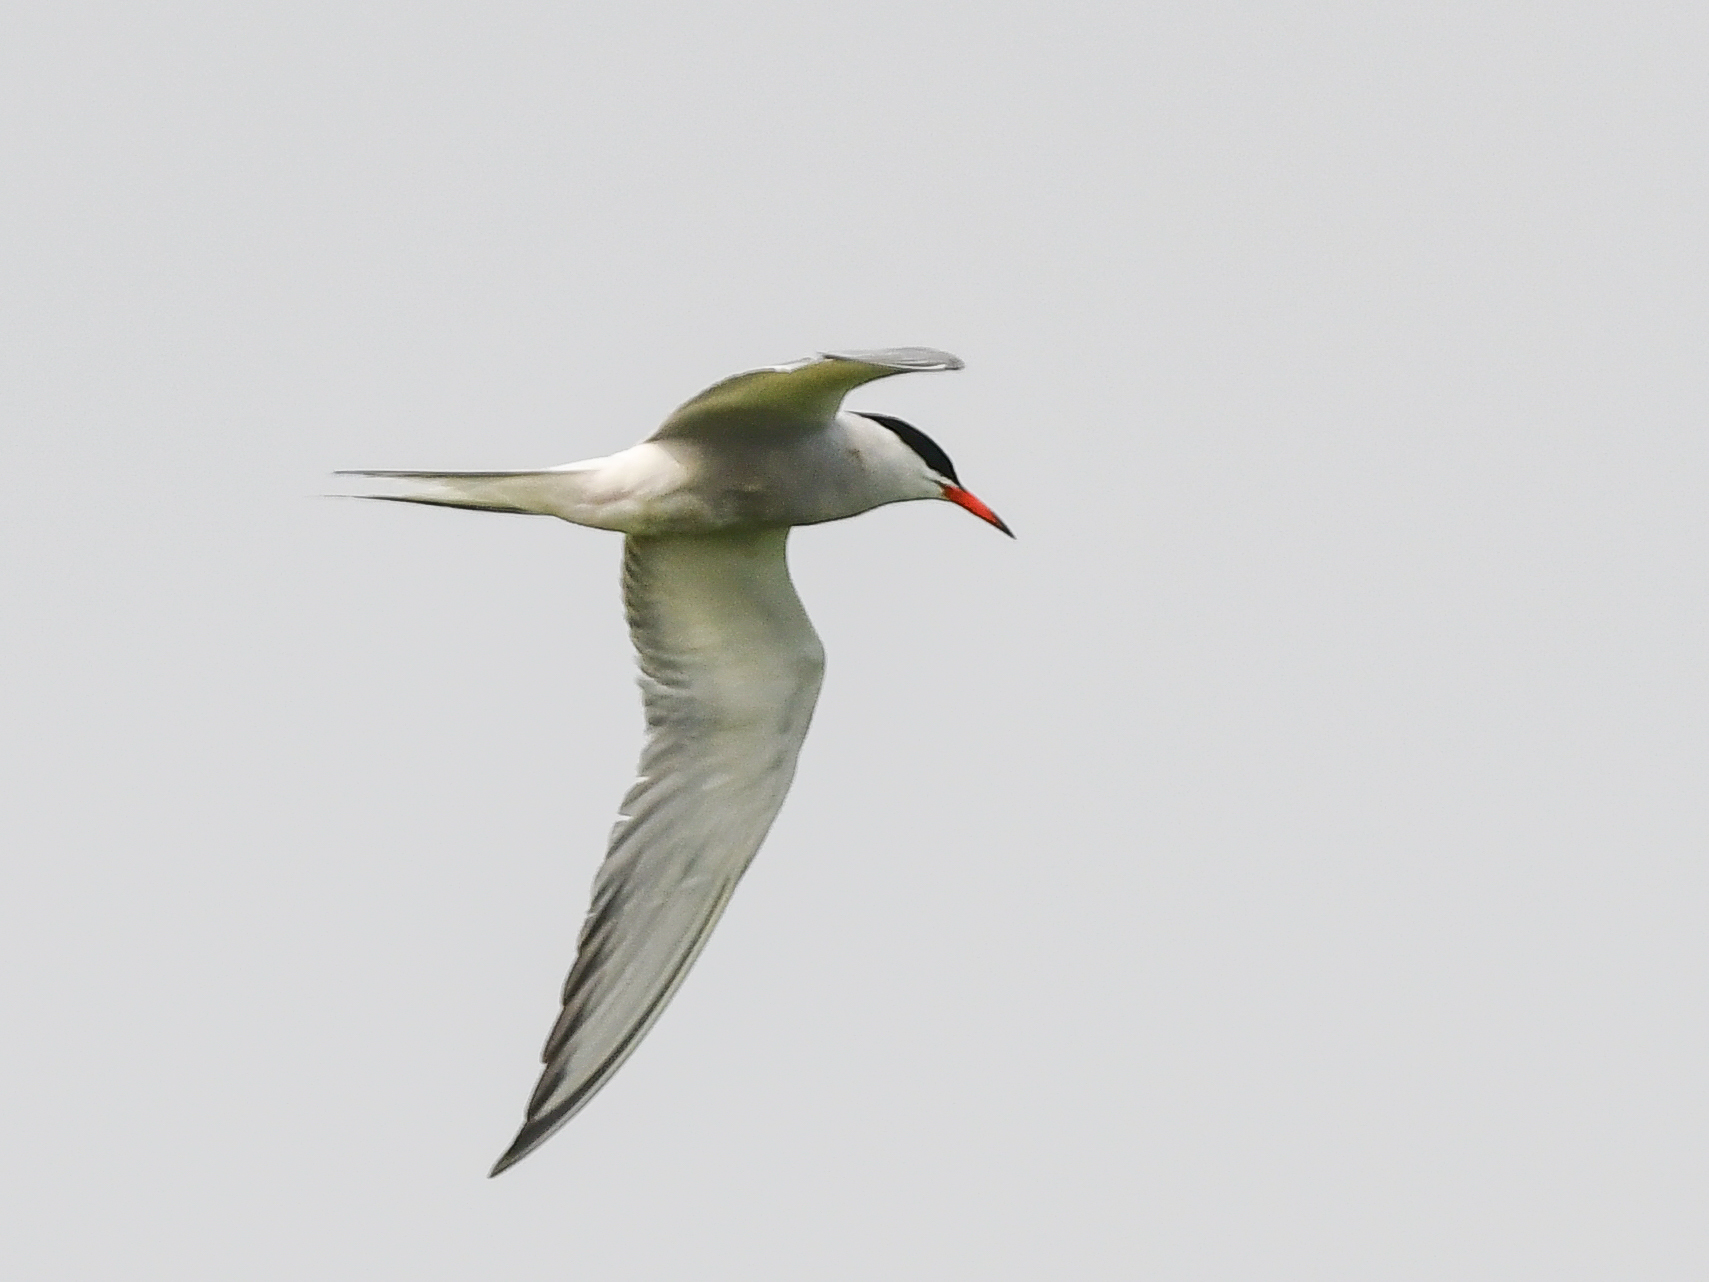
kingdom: Animalia
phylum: Chordata
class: Aves
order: Charadriiformes
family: Laridae
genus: Sterna
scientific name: Sterna hirundo
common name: Common tern
